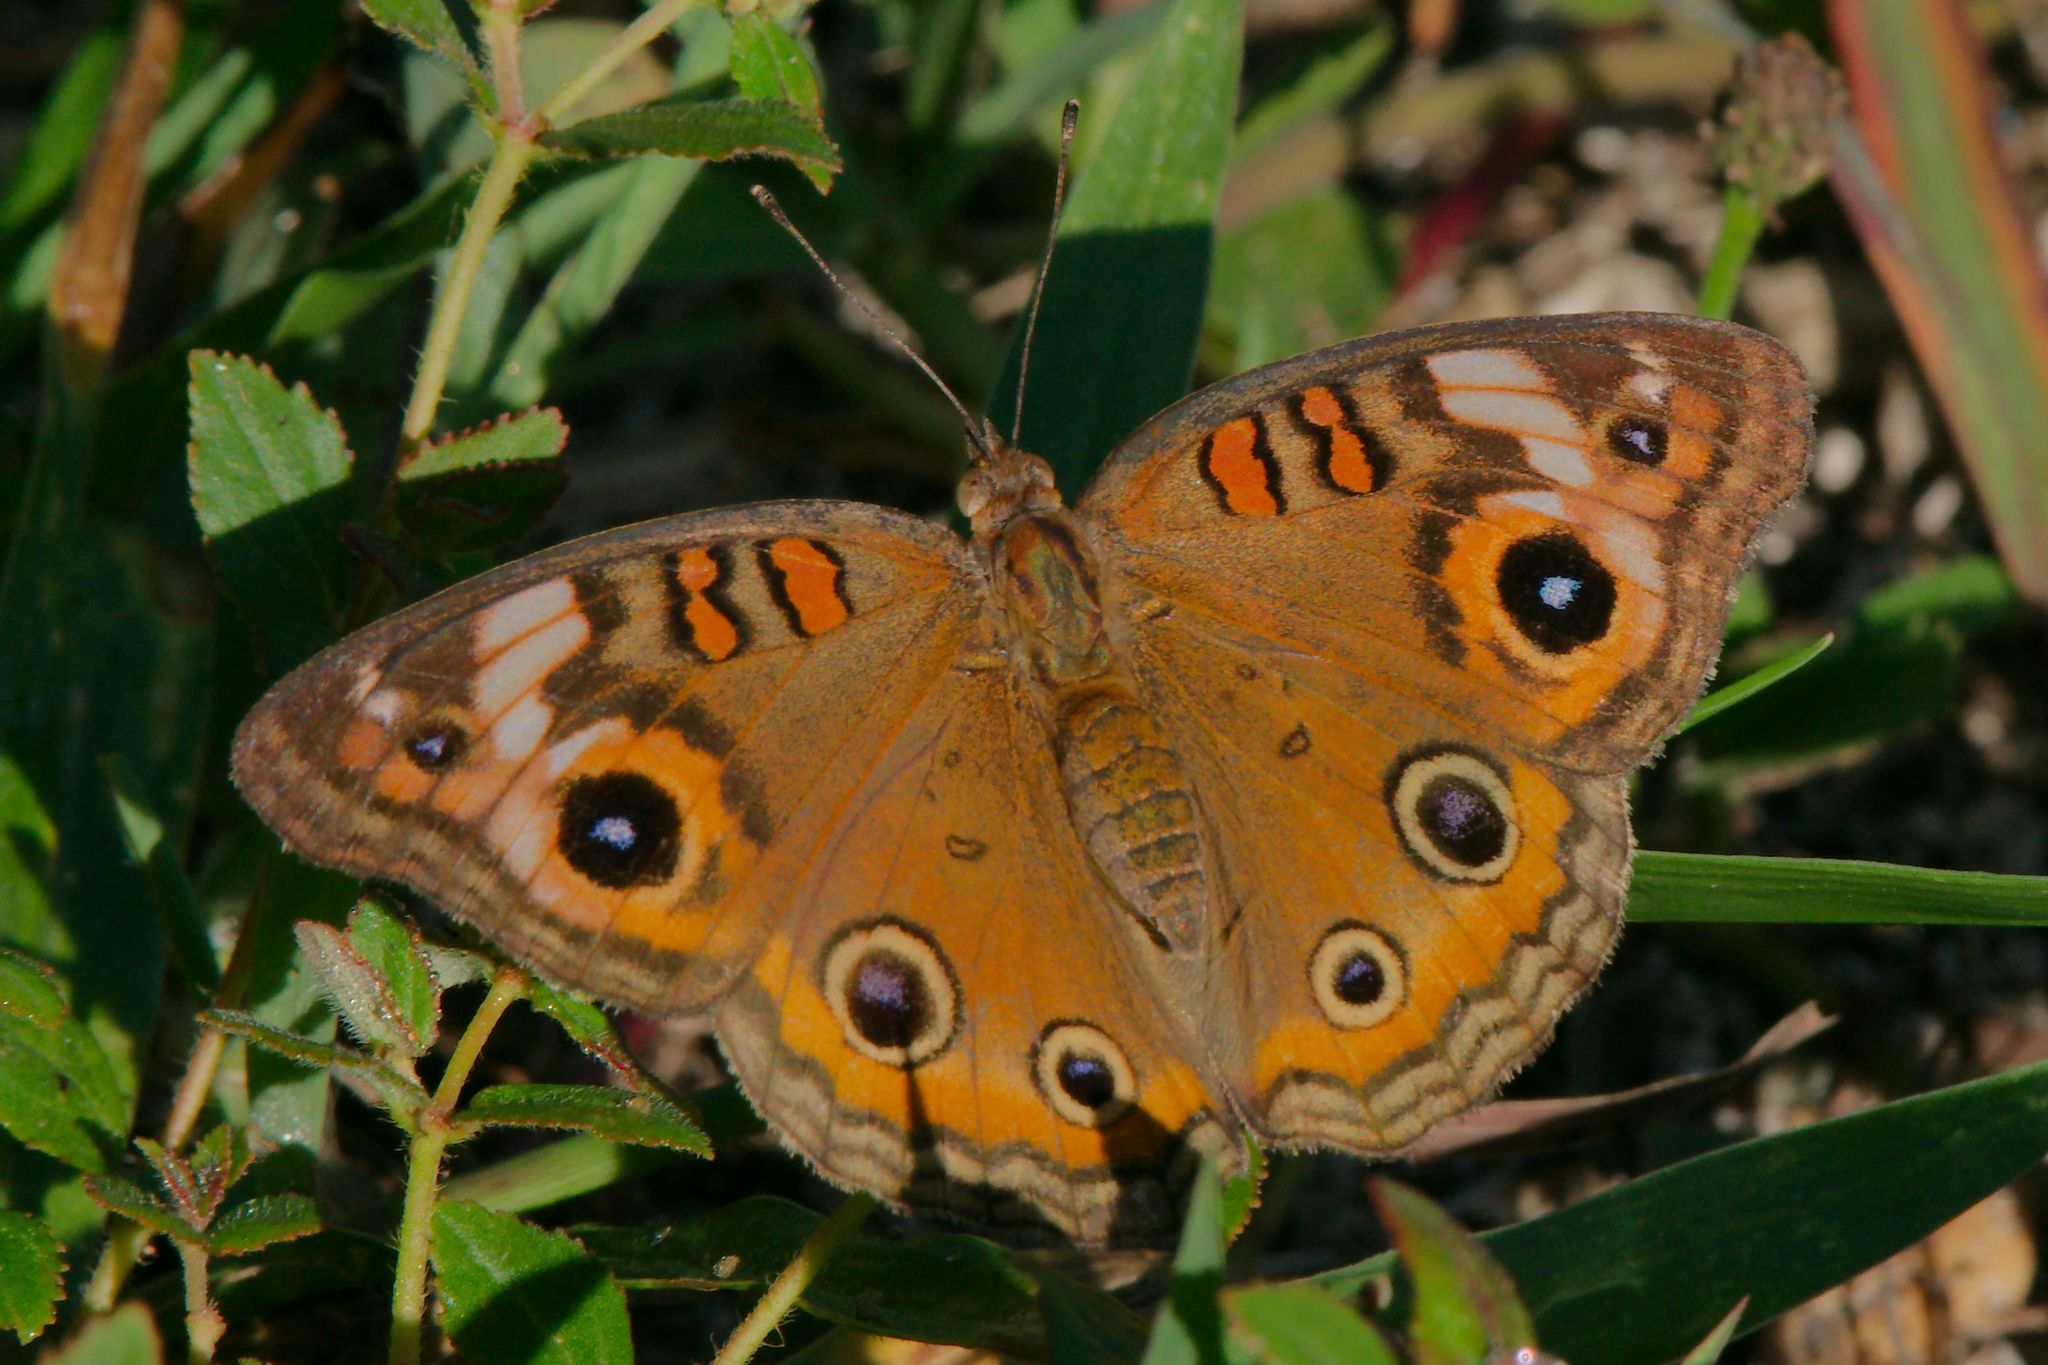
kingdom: Animalia
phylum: Arthropoda
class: Insecta
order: Lepidoptera
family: Nymphalidae
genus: Junonia
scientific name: Junonia neildi
